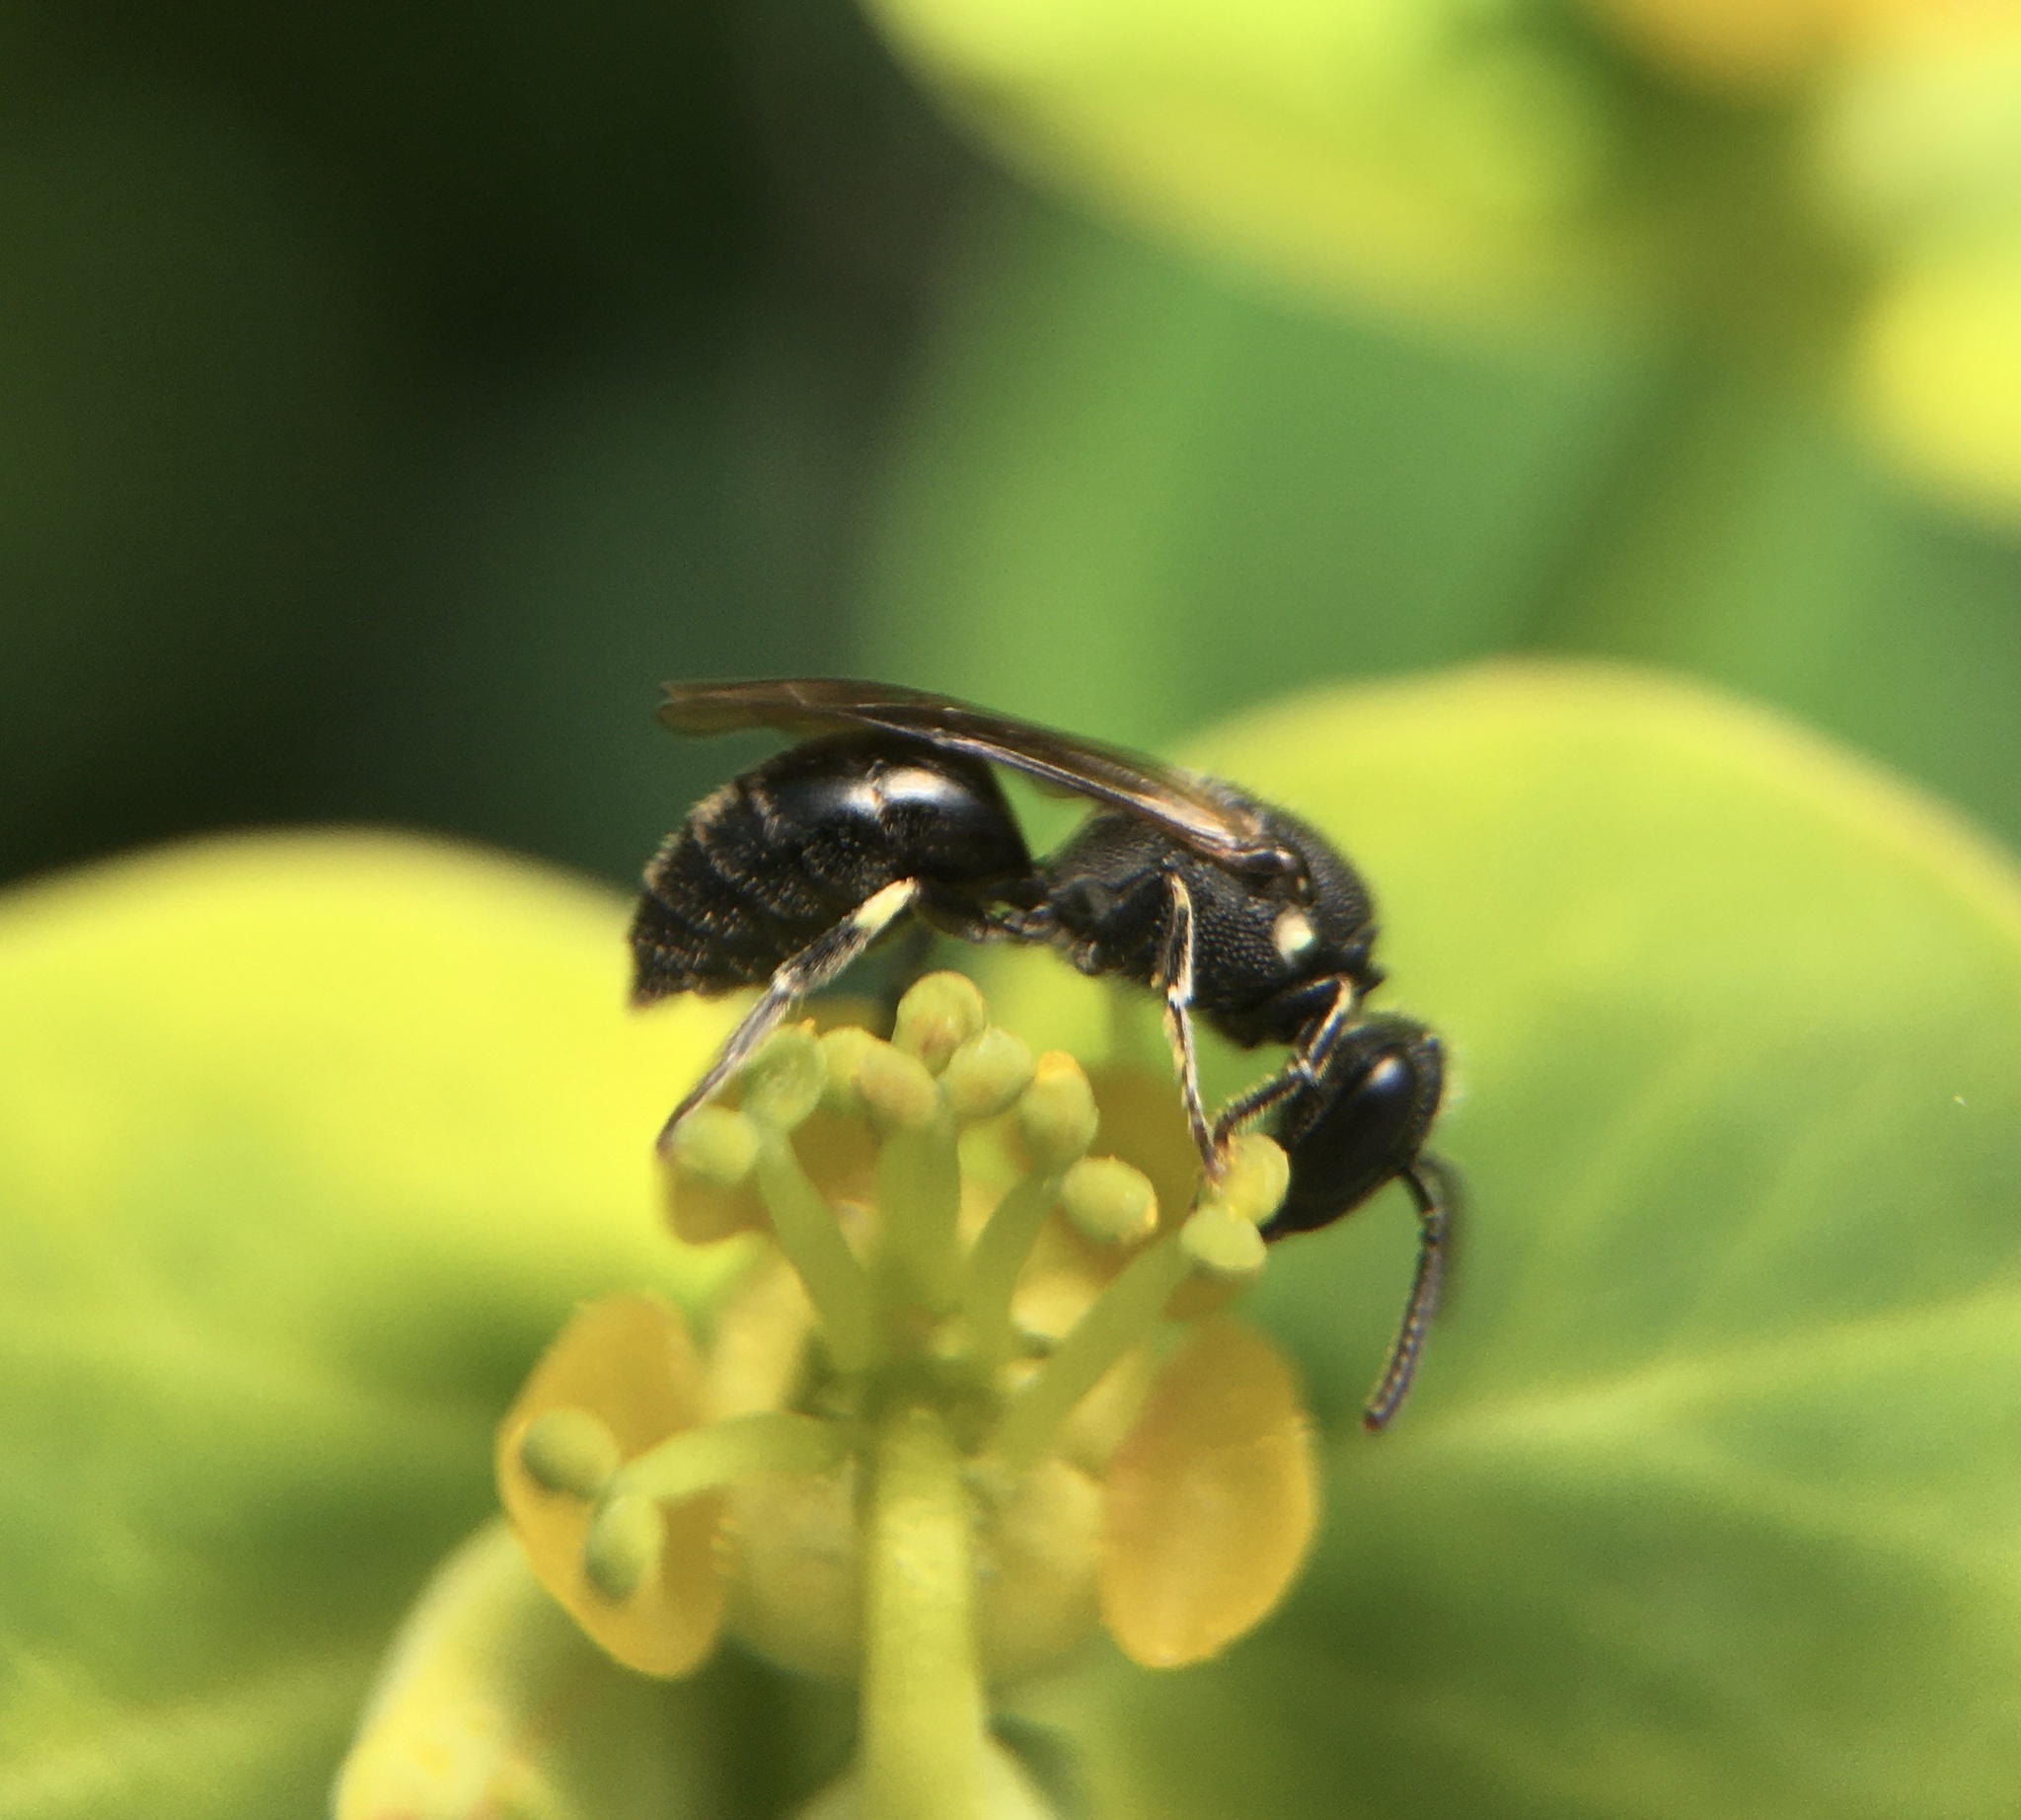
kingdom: Animalia
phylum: Arthropoda
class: Insecta
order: Hymenoptera
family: Colletidae
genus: Hylaeus
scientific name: Hylaeus
